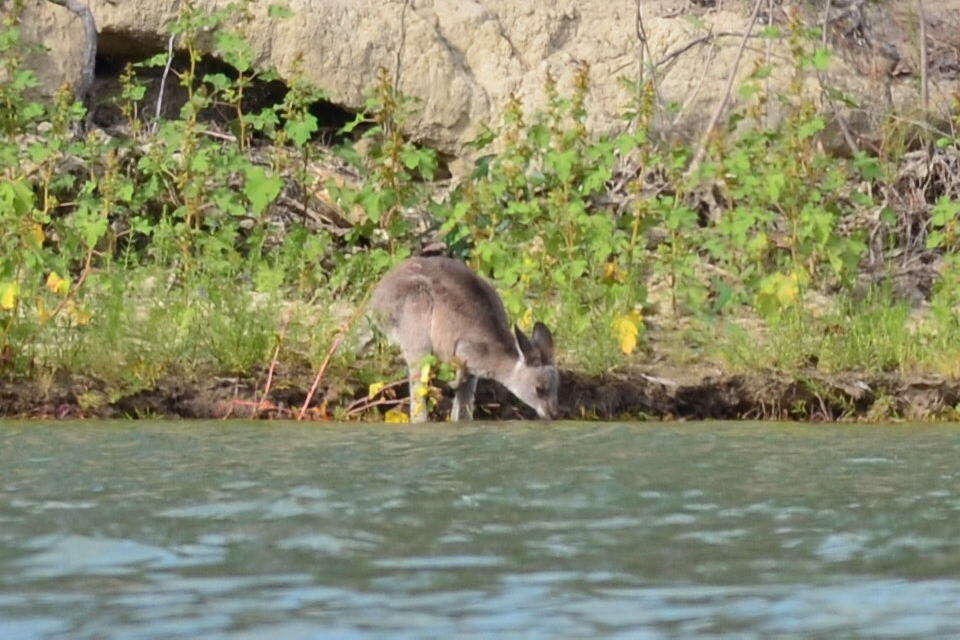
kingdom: Animalia
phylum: Chordata
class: Mammalia
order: Diprotodontia
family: Macropodidae
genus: Macropus
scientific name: Macropus giganteus
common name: Eastern grey kangaroo
